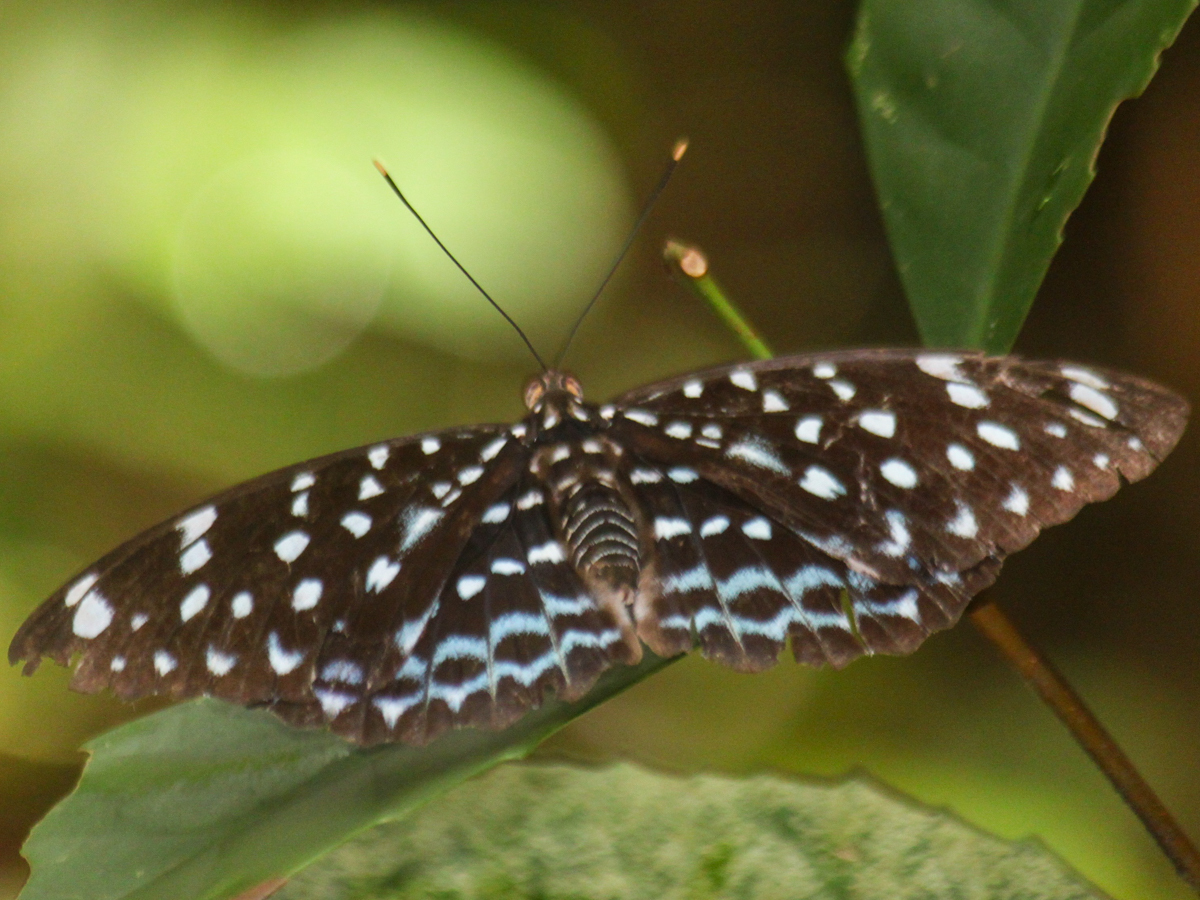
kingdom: Animalia
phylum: Arthropoda
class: Insecta
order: Lepidoptera
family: Nymphalidae
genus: Lexias
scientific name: Lexias
